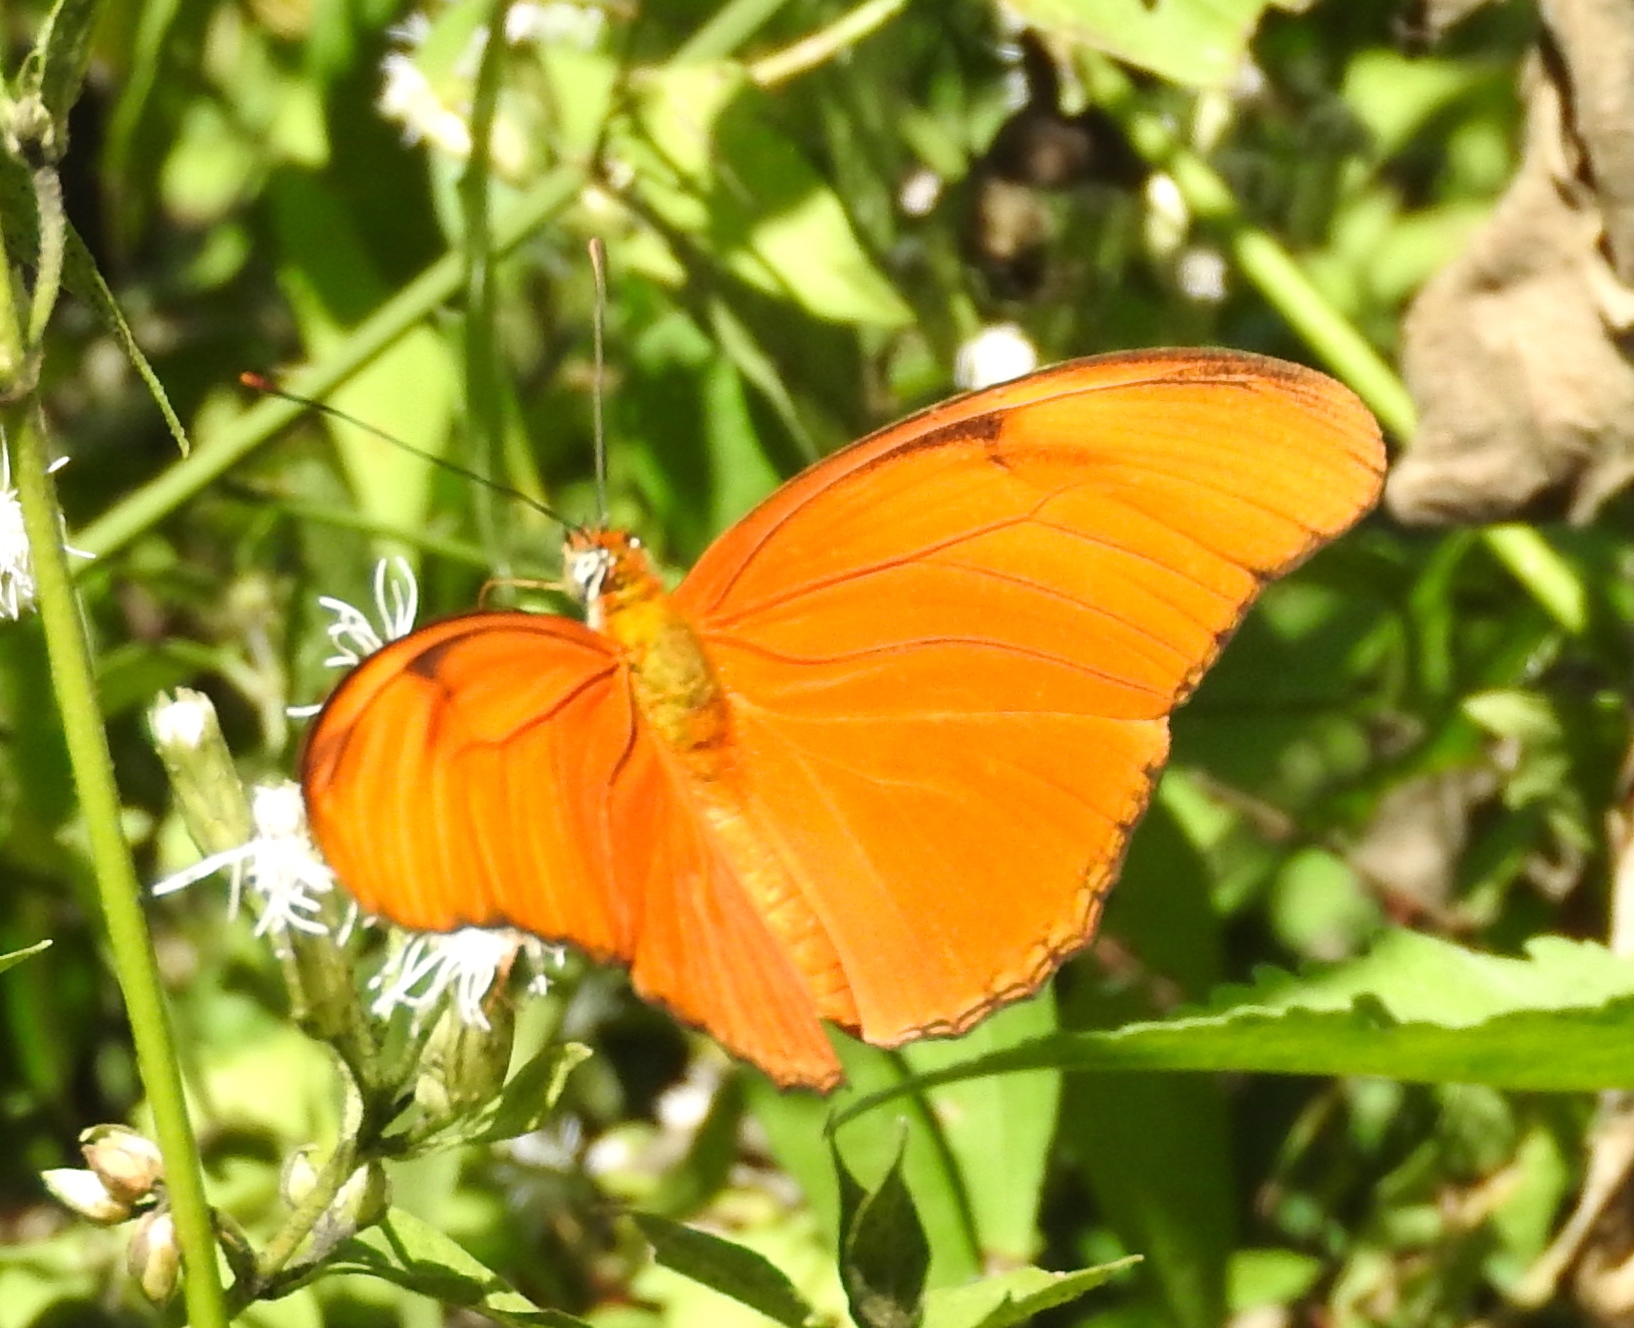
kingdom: Animalia
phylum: Arthropoda
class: Insecta
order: Lepidoptera
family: Nymphalidae
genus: Dryas
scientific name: Dryas iulia
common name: Flambeau
